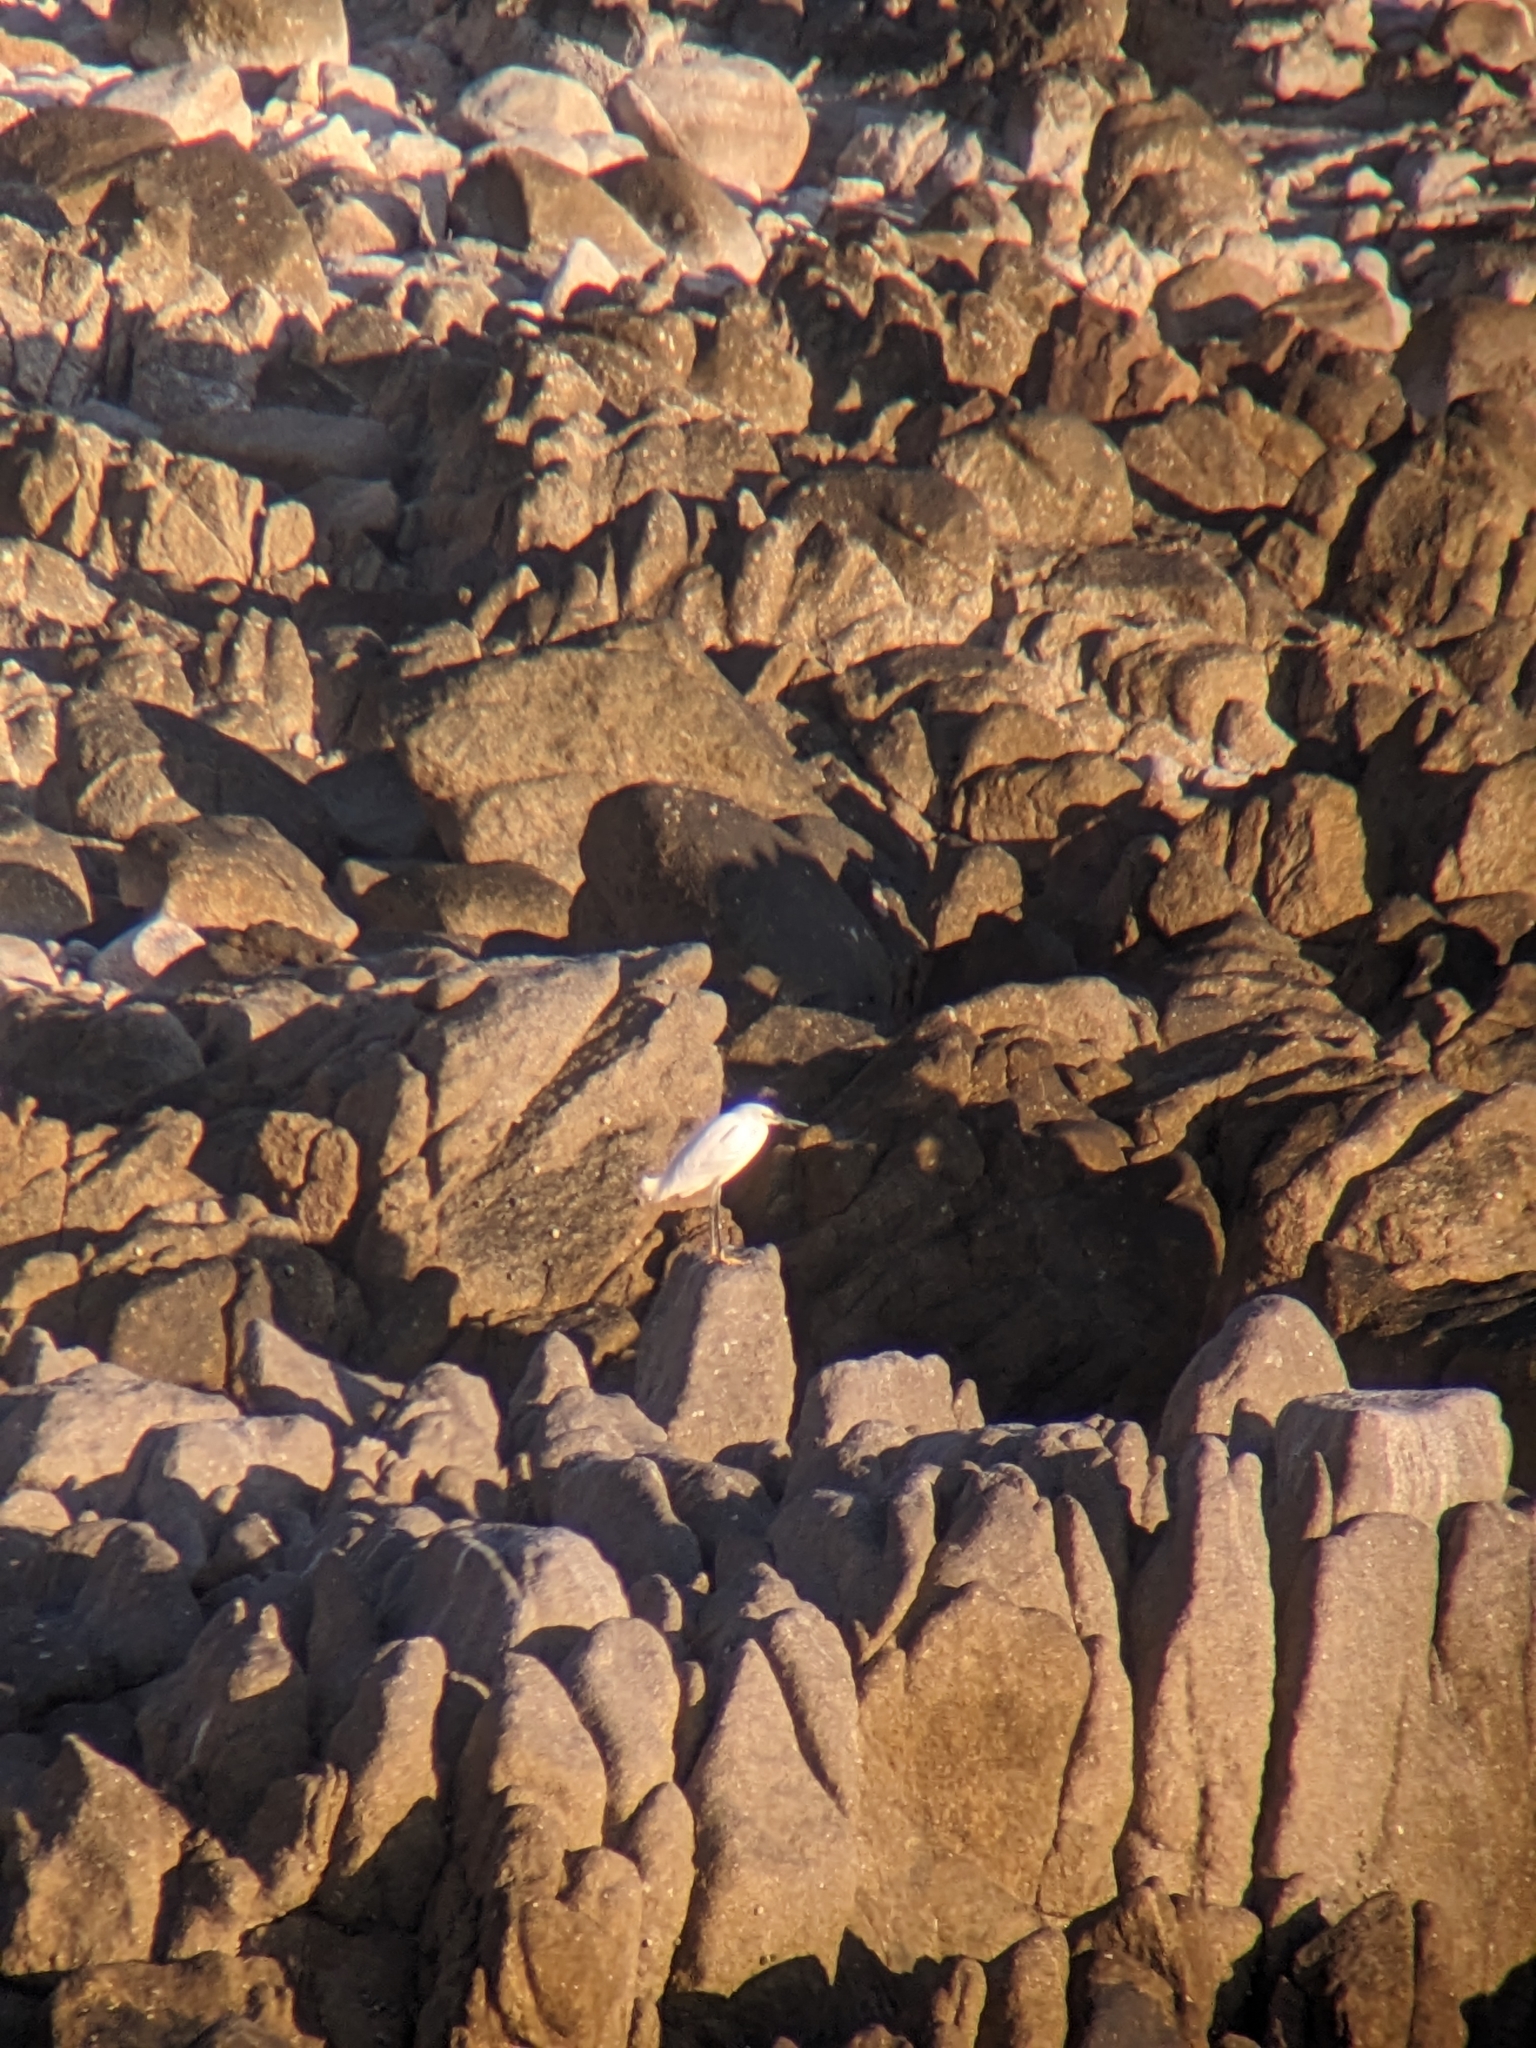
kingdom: Animalia
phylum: Chordata
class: Aves
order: Pelecaniformes
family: Ardeidae
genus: Egretta
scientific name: Egretta thula
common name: Snowy egret
